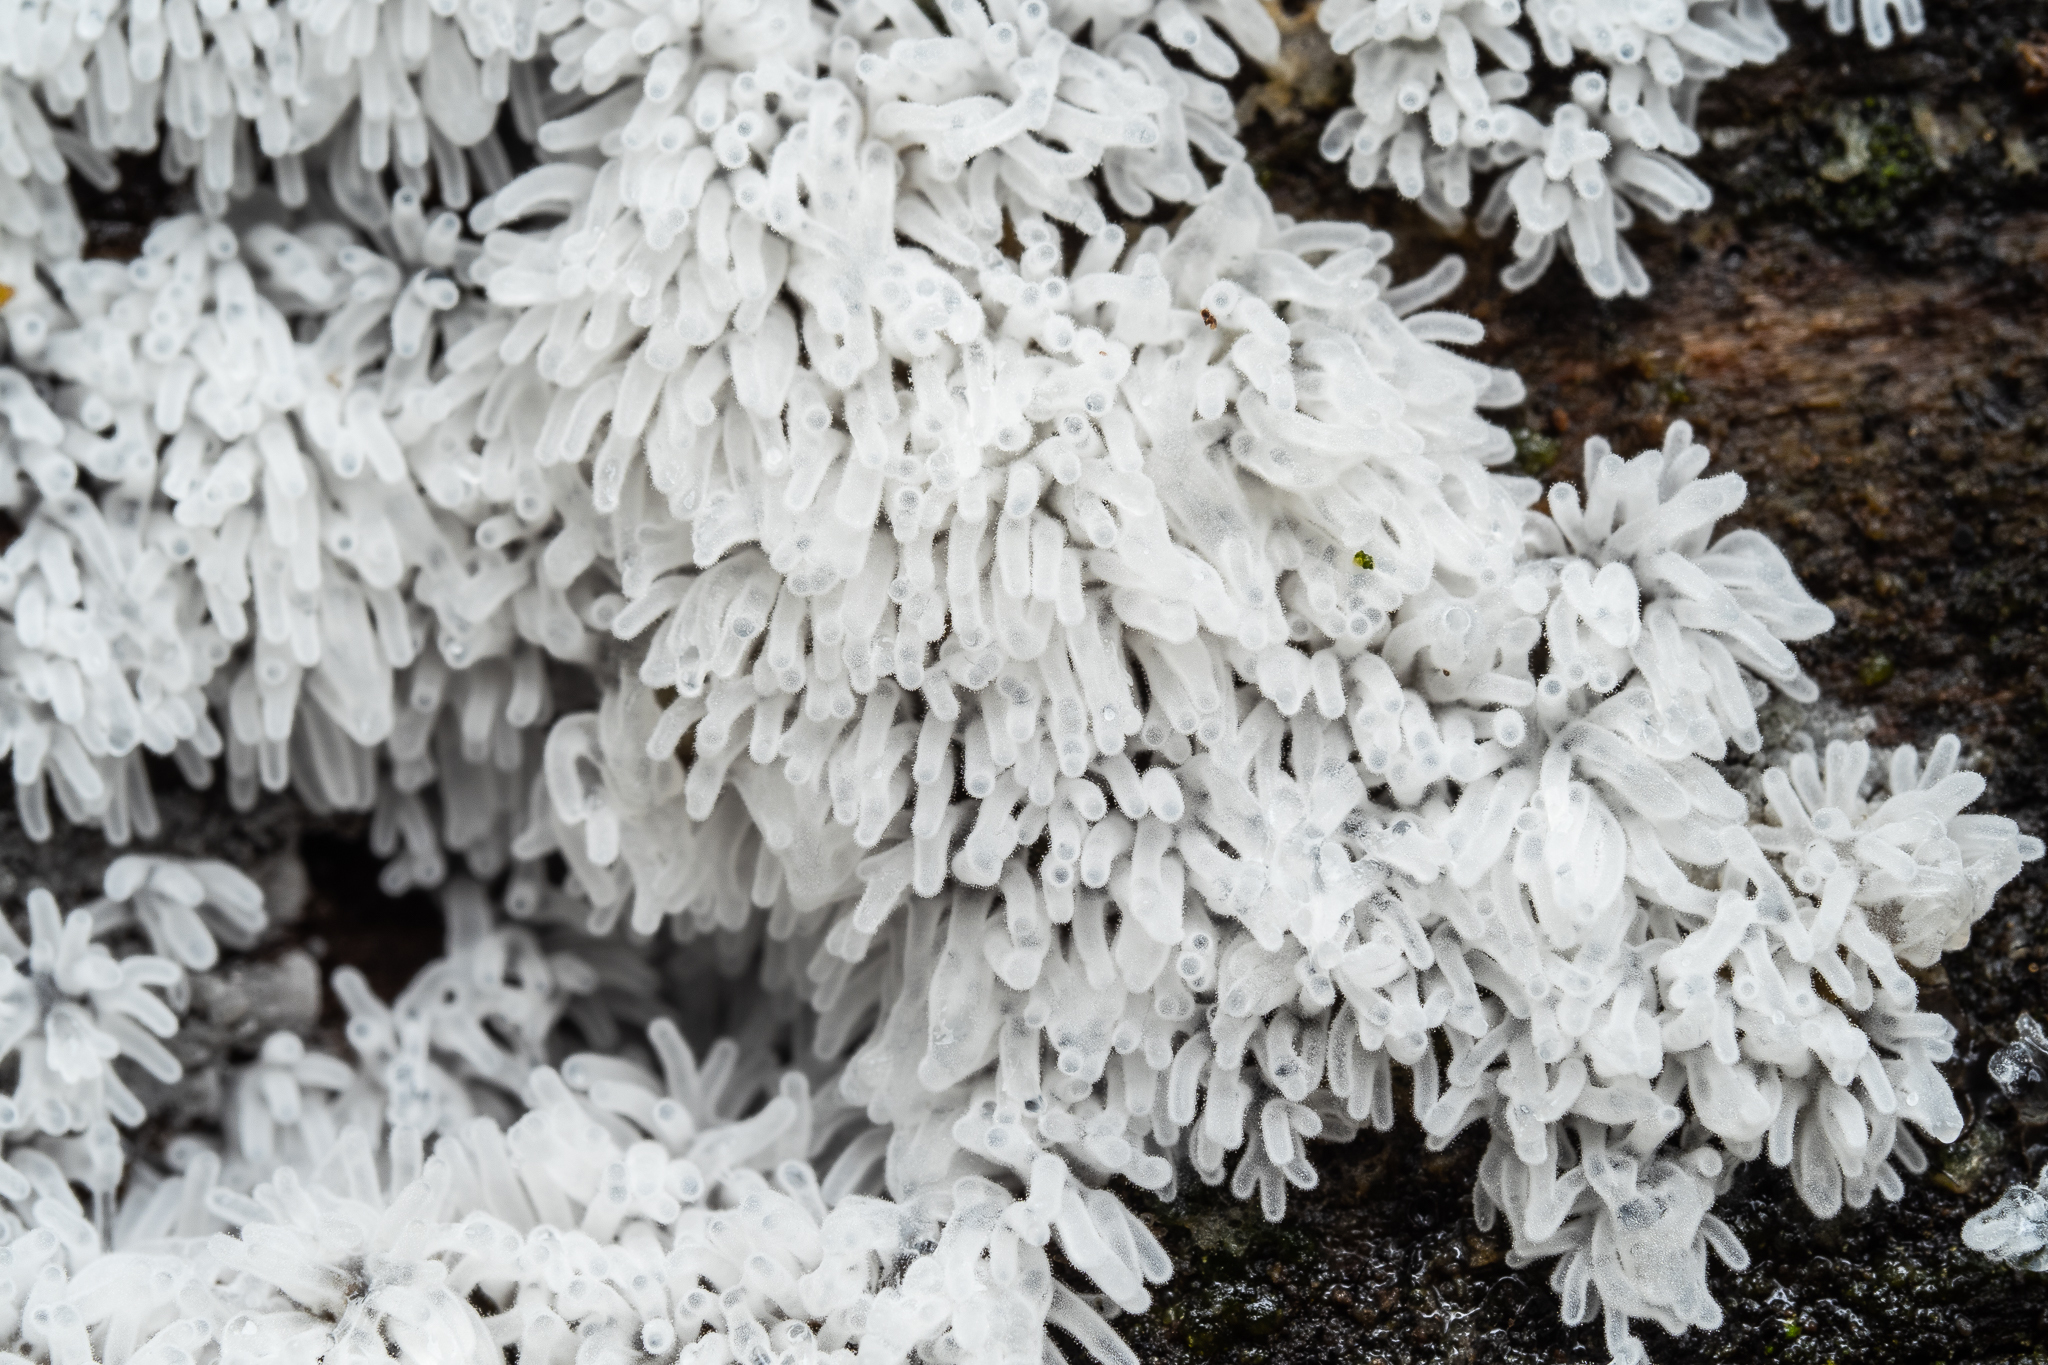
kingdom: Protozoa
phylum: Mycetozoa
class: Protosteliomycetes
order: Ceratiomyxales
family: Ceratiomyxaceae
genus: Ceratiomyxa
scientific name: Ceratiomyxa fruticulosa
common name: Honeycomb coral slime mold
